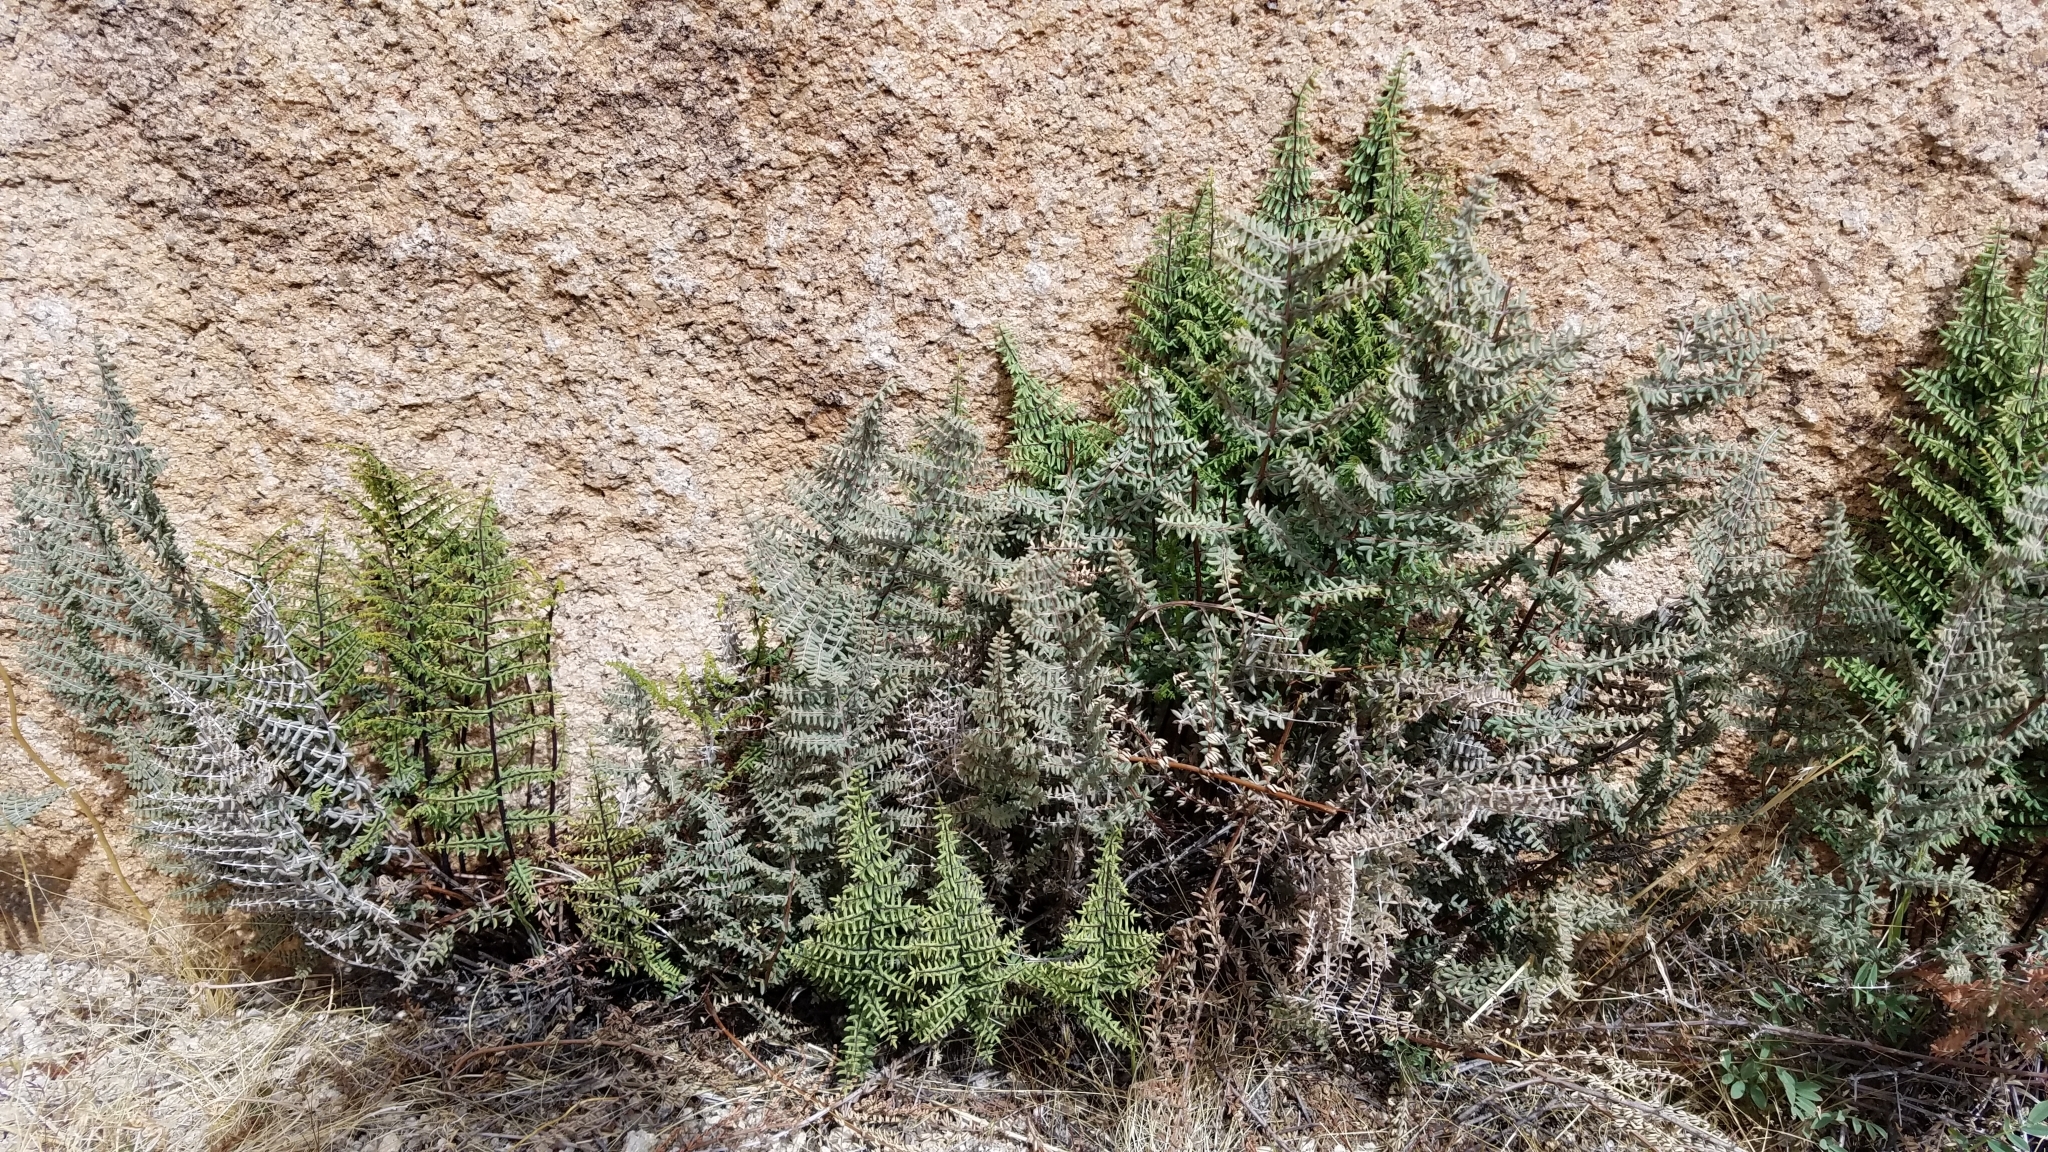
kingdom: Plantae
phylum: Tracheophyta
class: Polypodiopsida
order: Polypodiales
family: Pteridaceae
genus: Pellaea
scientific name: Pellaea mucronata
